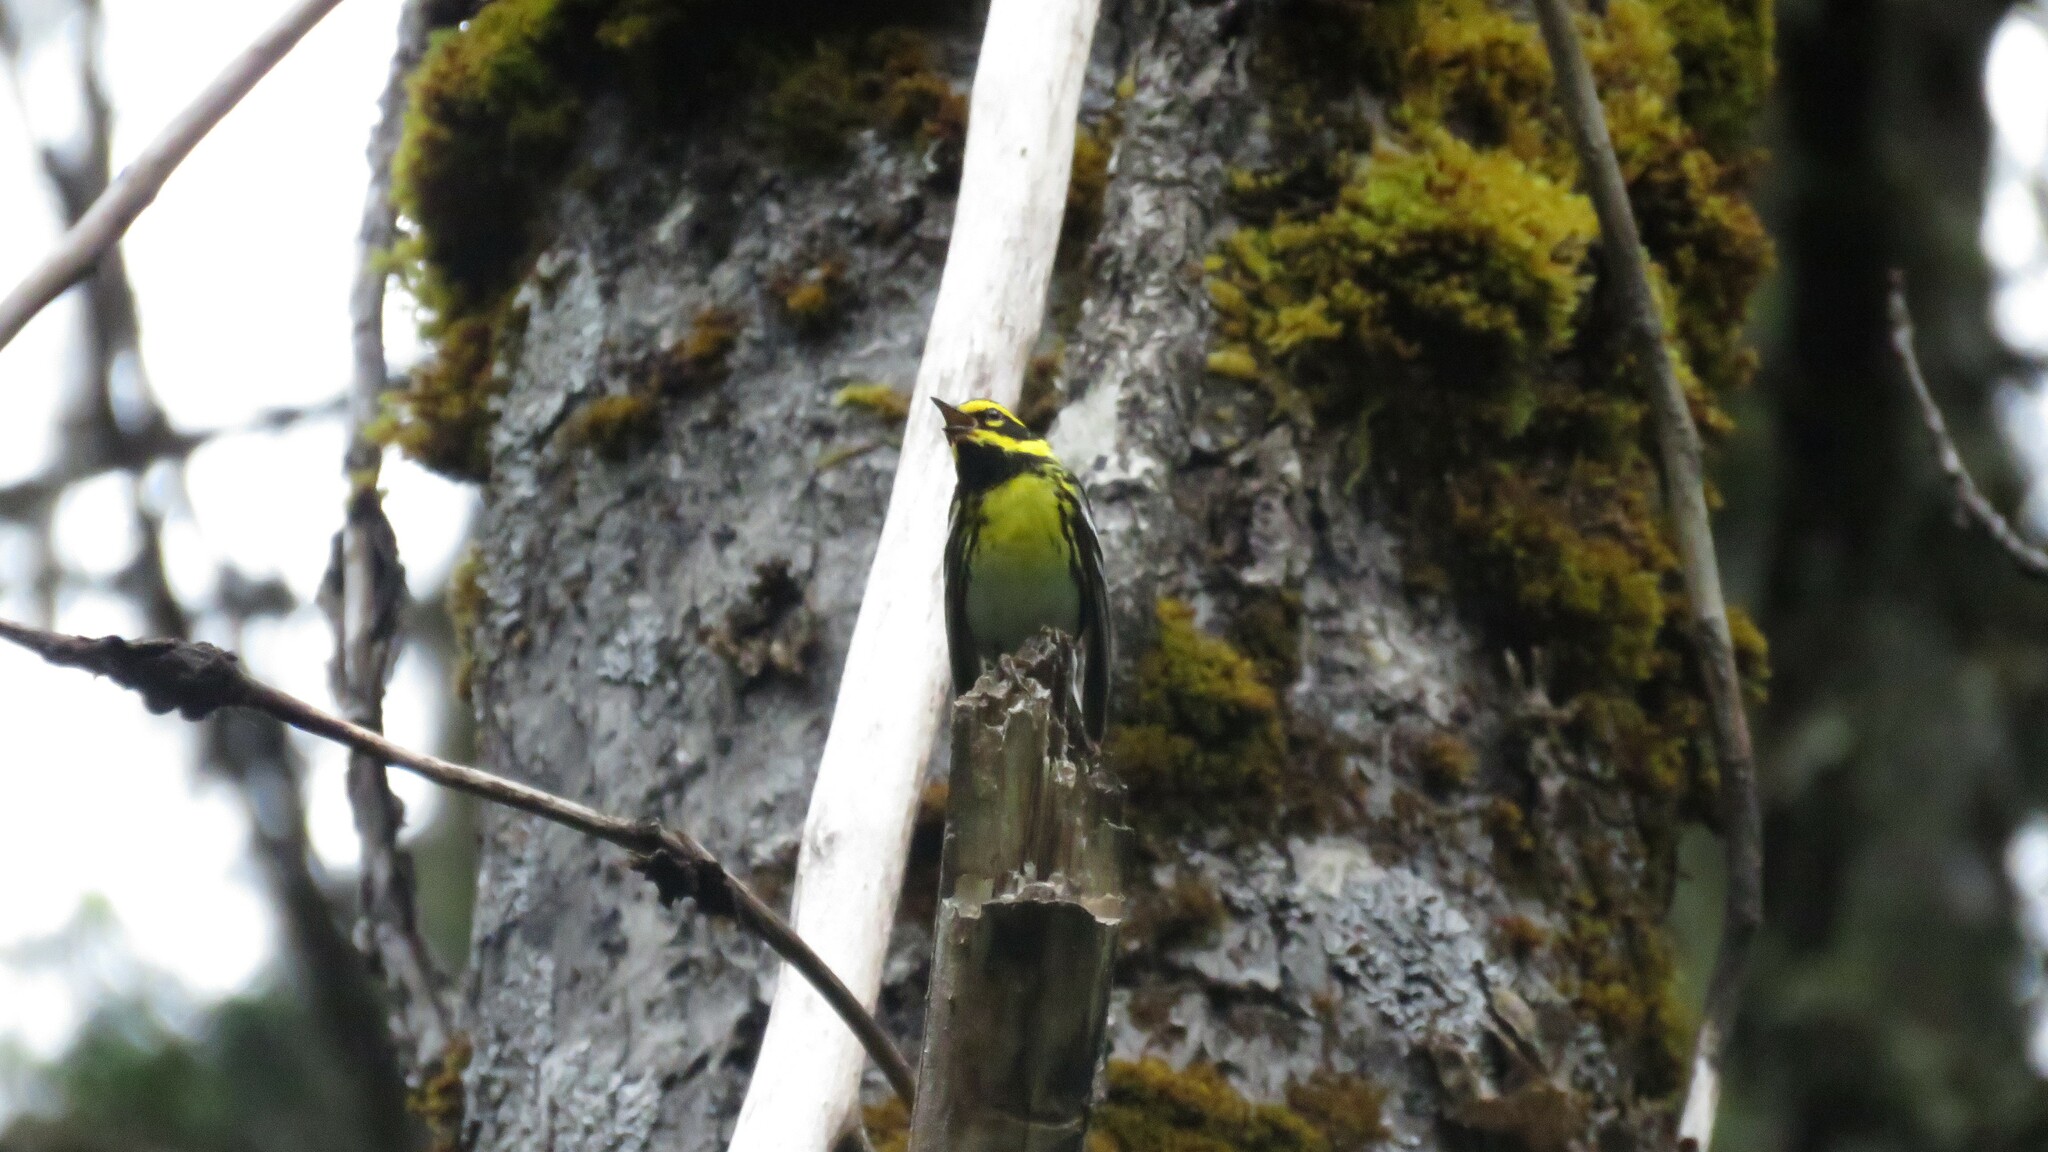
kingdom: Animalia
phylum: Chordata
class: Aves
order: Passeriformes
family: Parulidae
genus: Setophaga
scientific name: Setophaga townsendi
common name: Townsend's warbler
